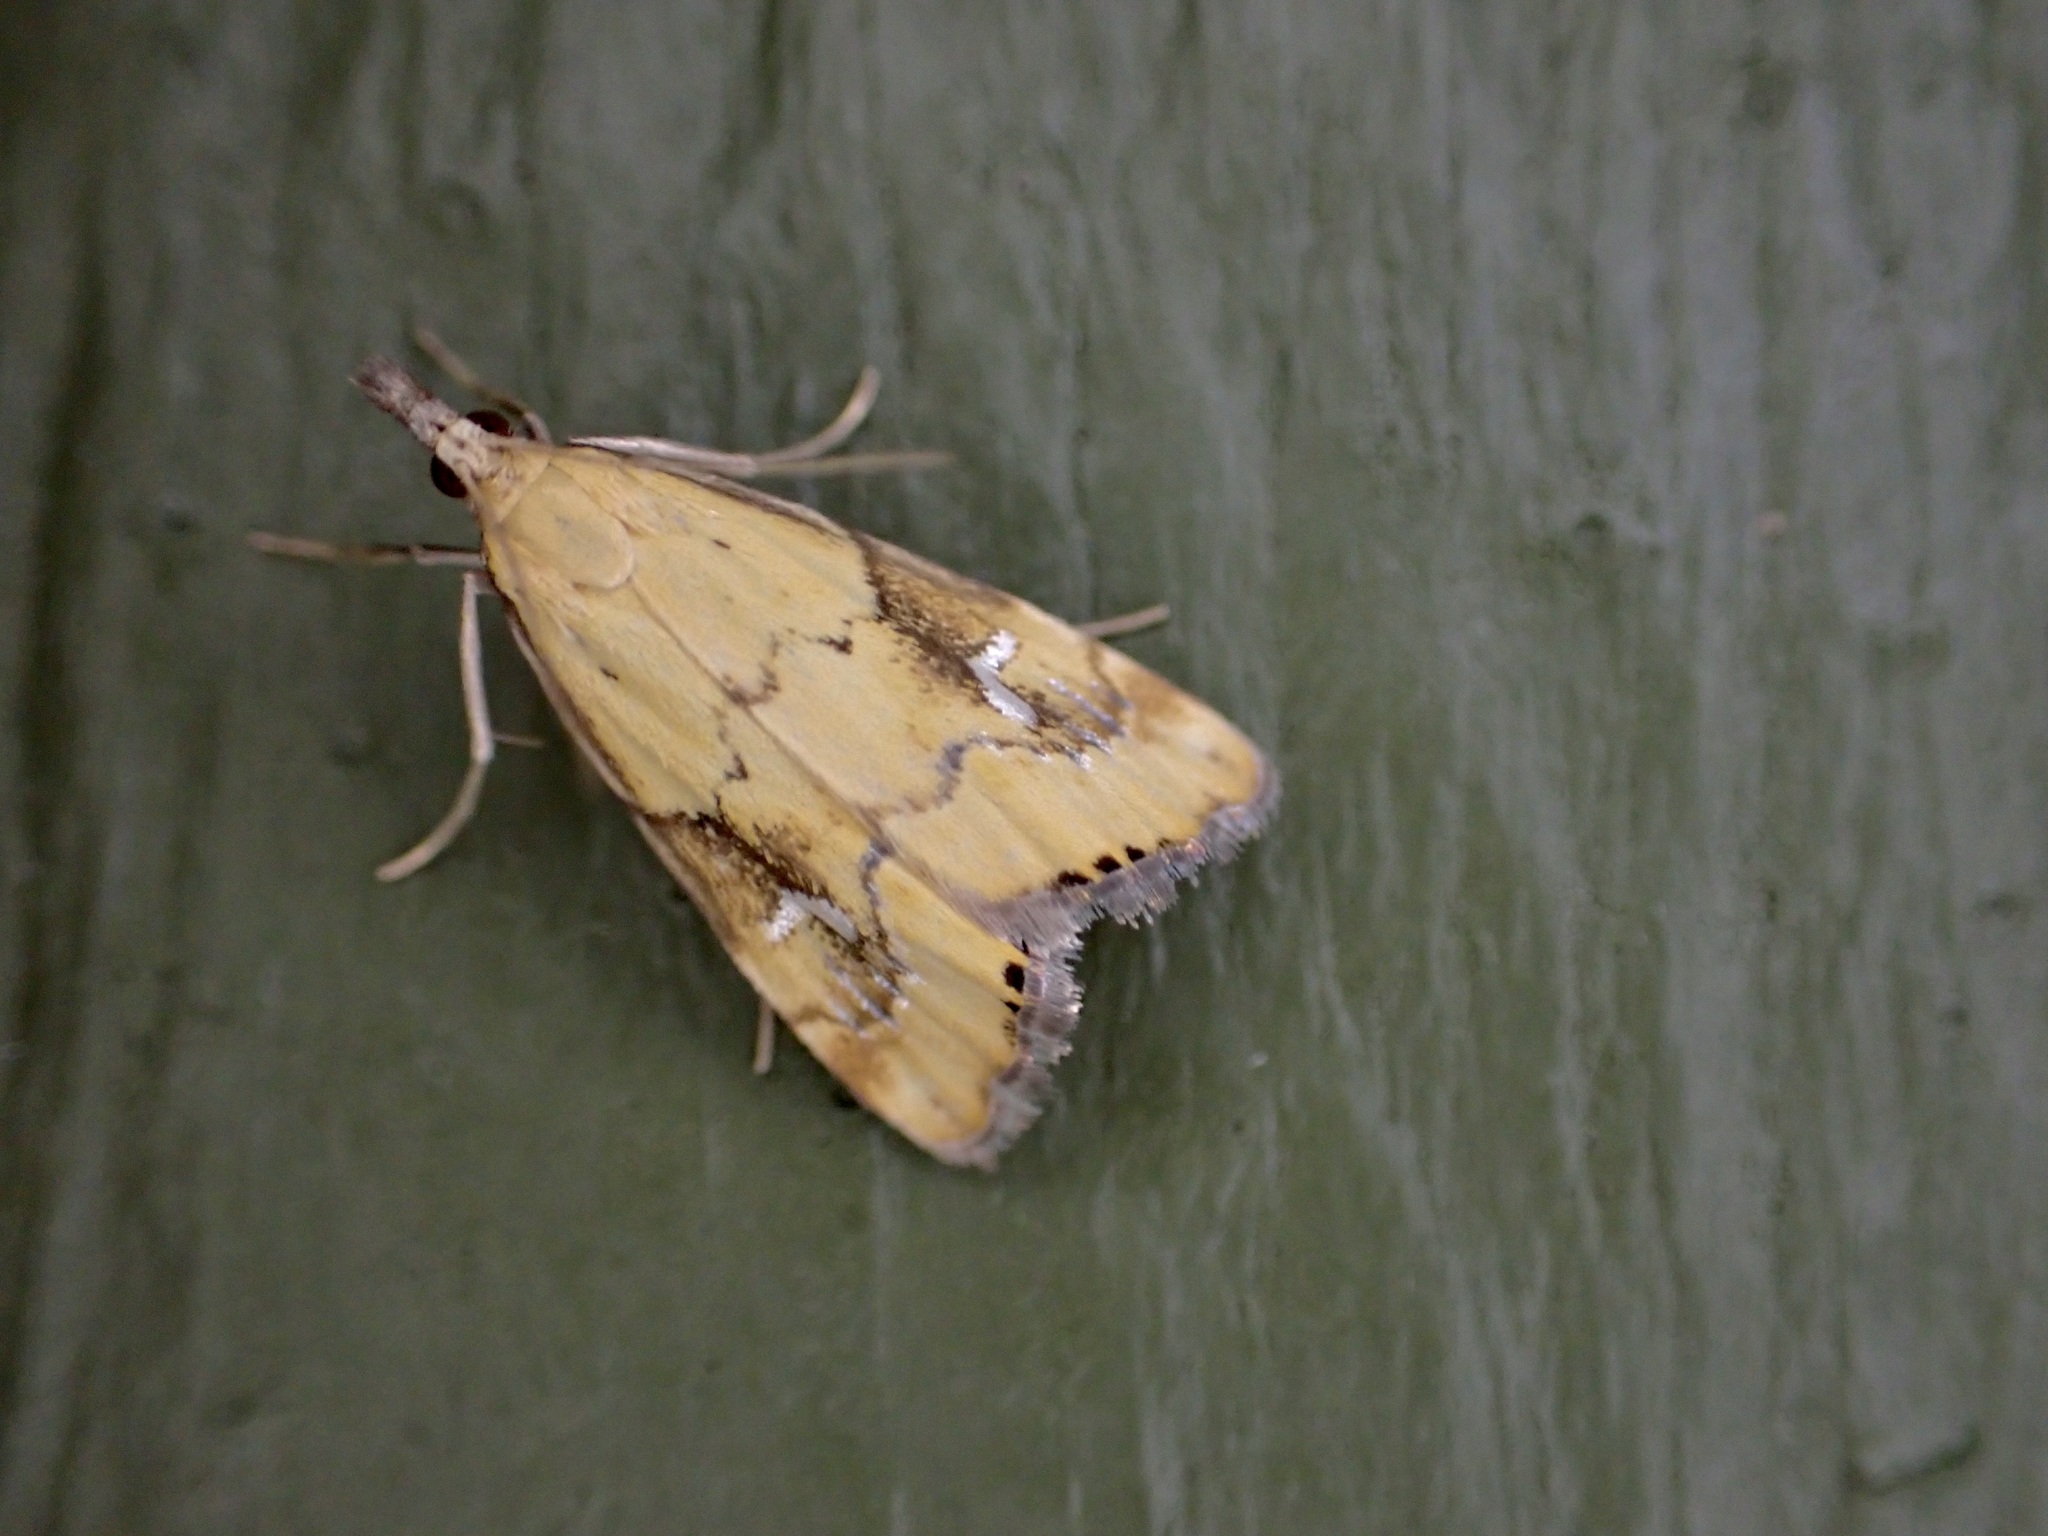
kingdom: Animalia
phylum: Arthropoda
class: Insecta
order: Lepidoptera
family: Crambidae
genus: Glaucocharis
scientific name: Glaucocharis lepidella
